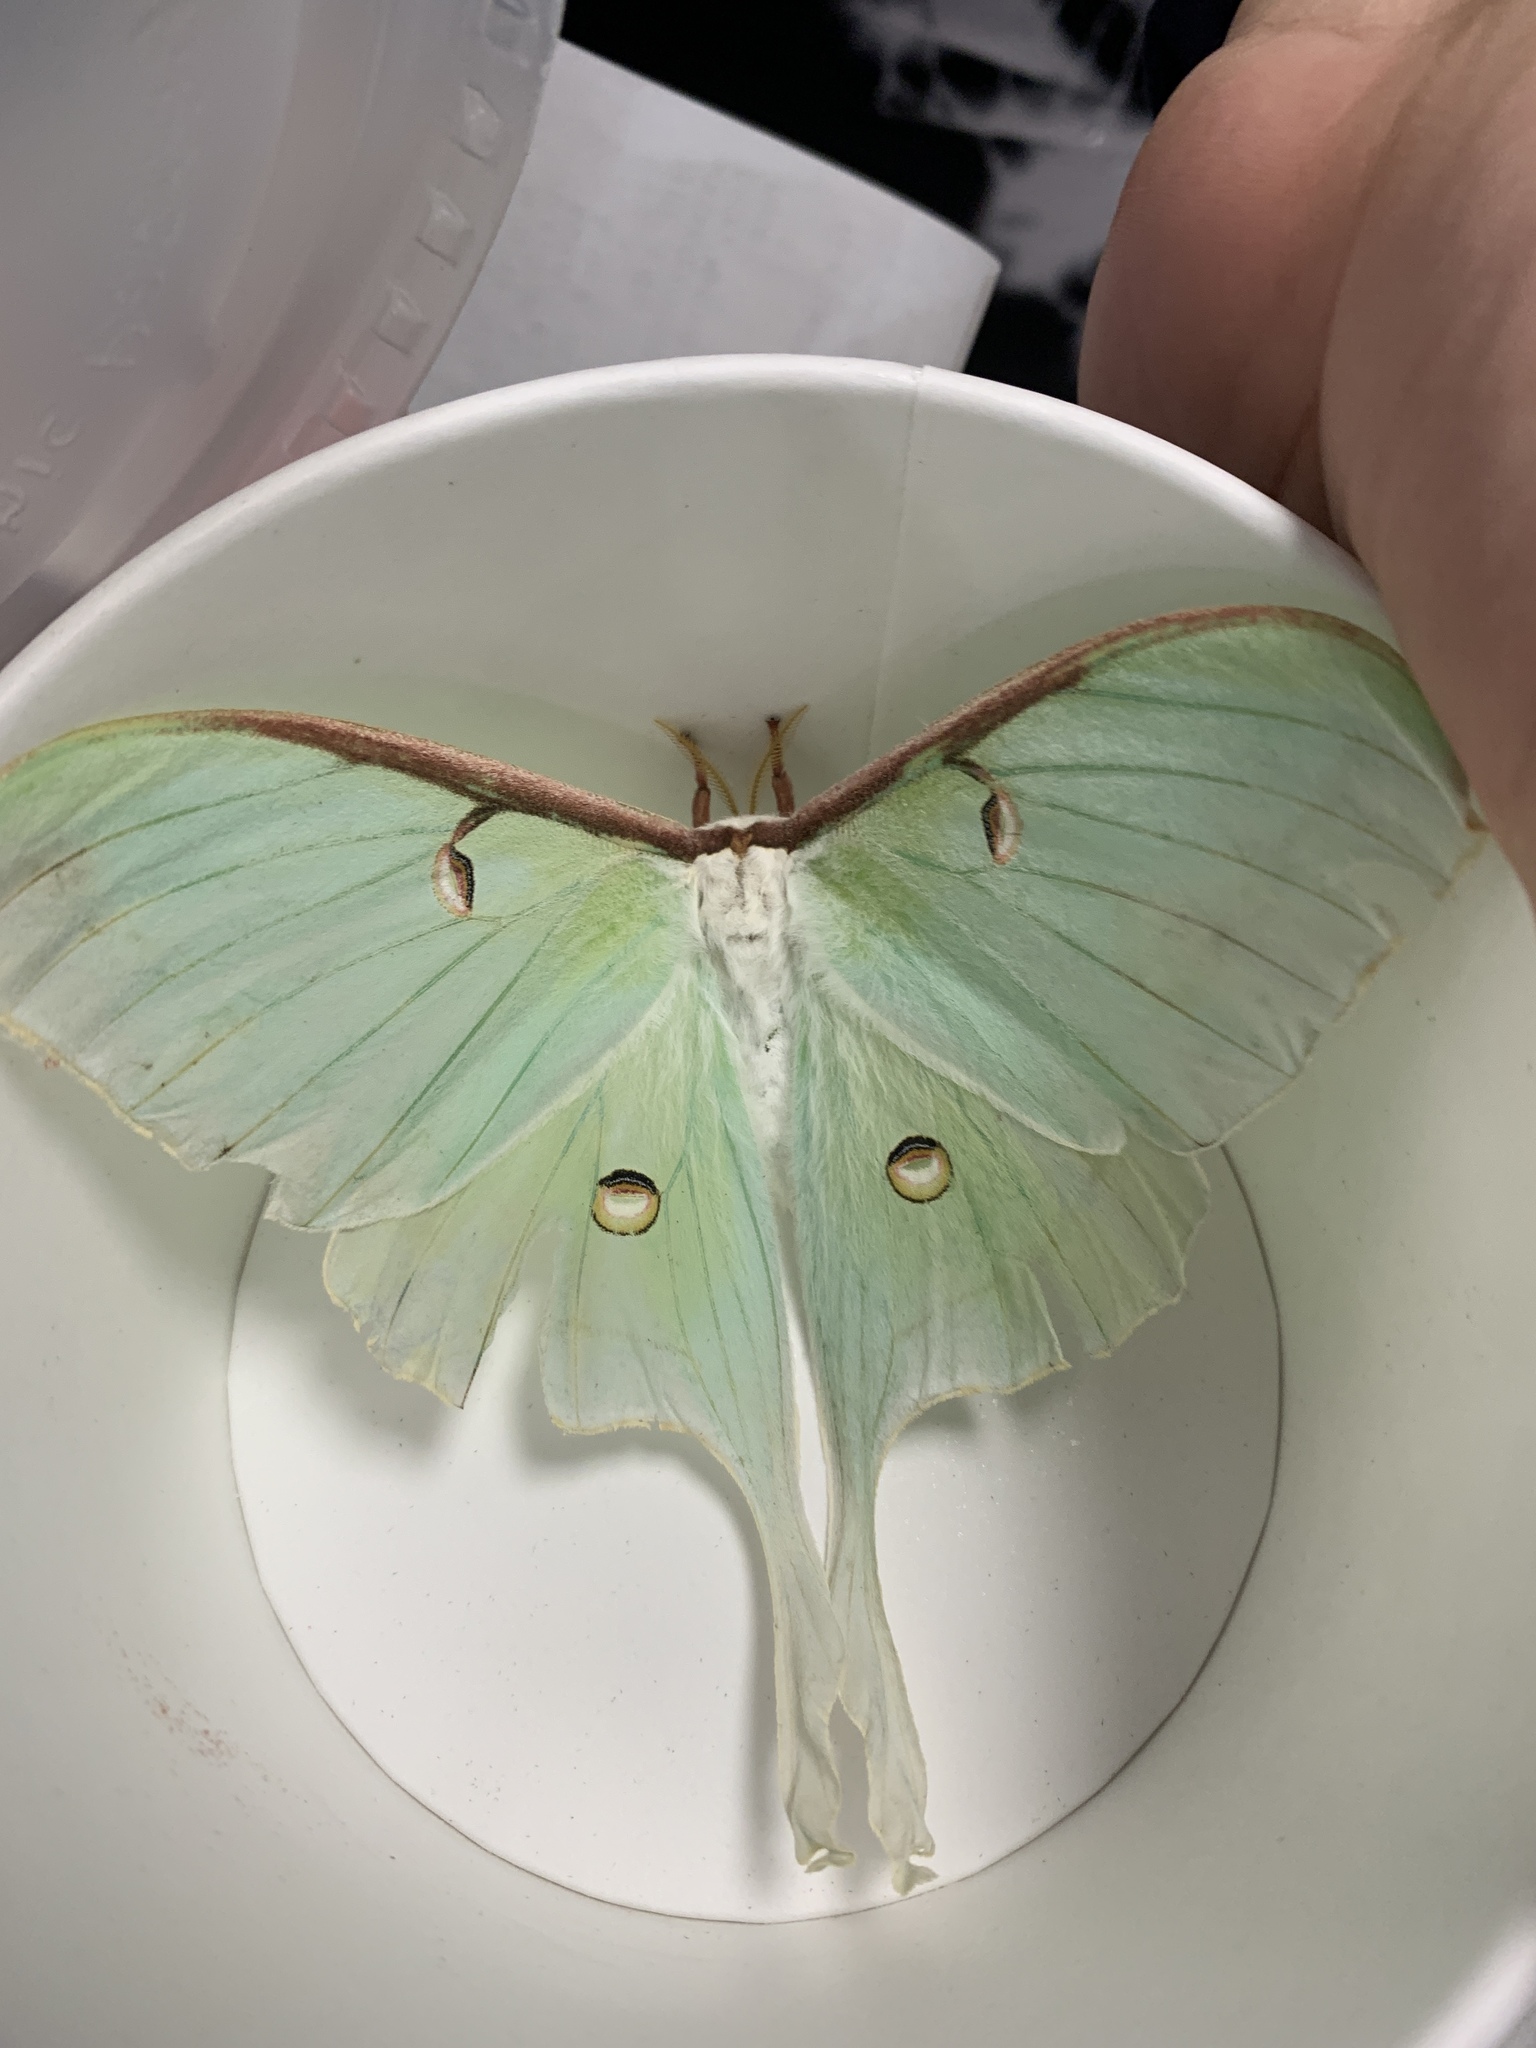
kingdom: Animalia
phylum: Arthropoda
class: Insecta
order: Lepidoptera
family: Saturniidae
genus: Actias
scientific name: Actias luna
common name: Luna moth
